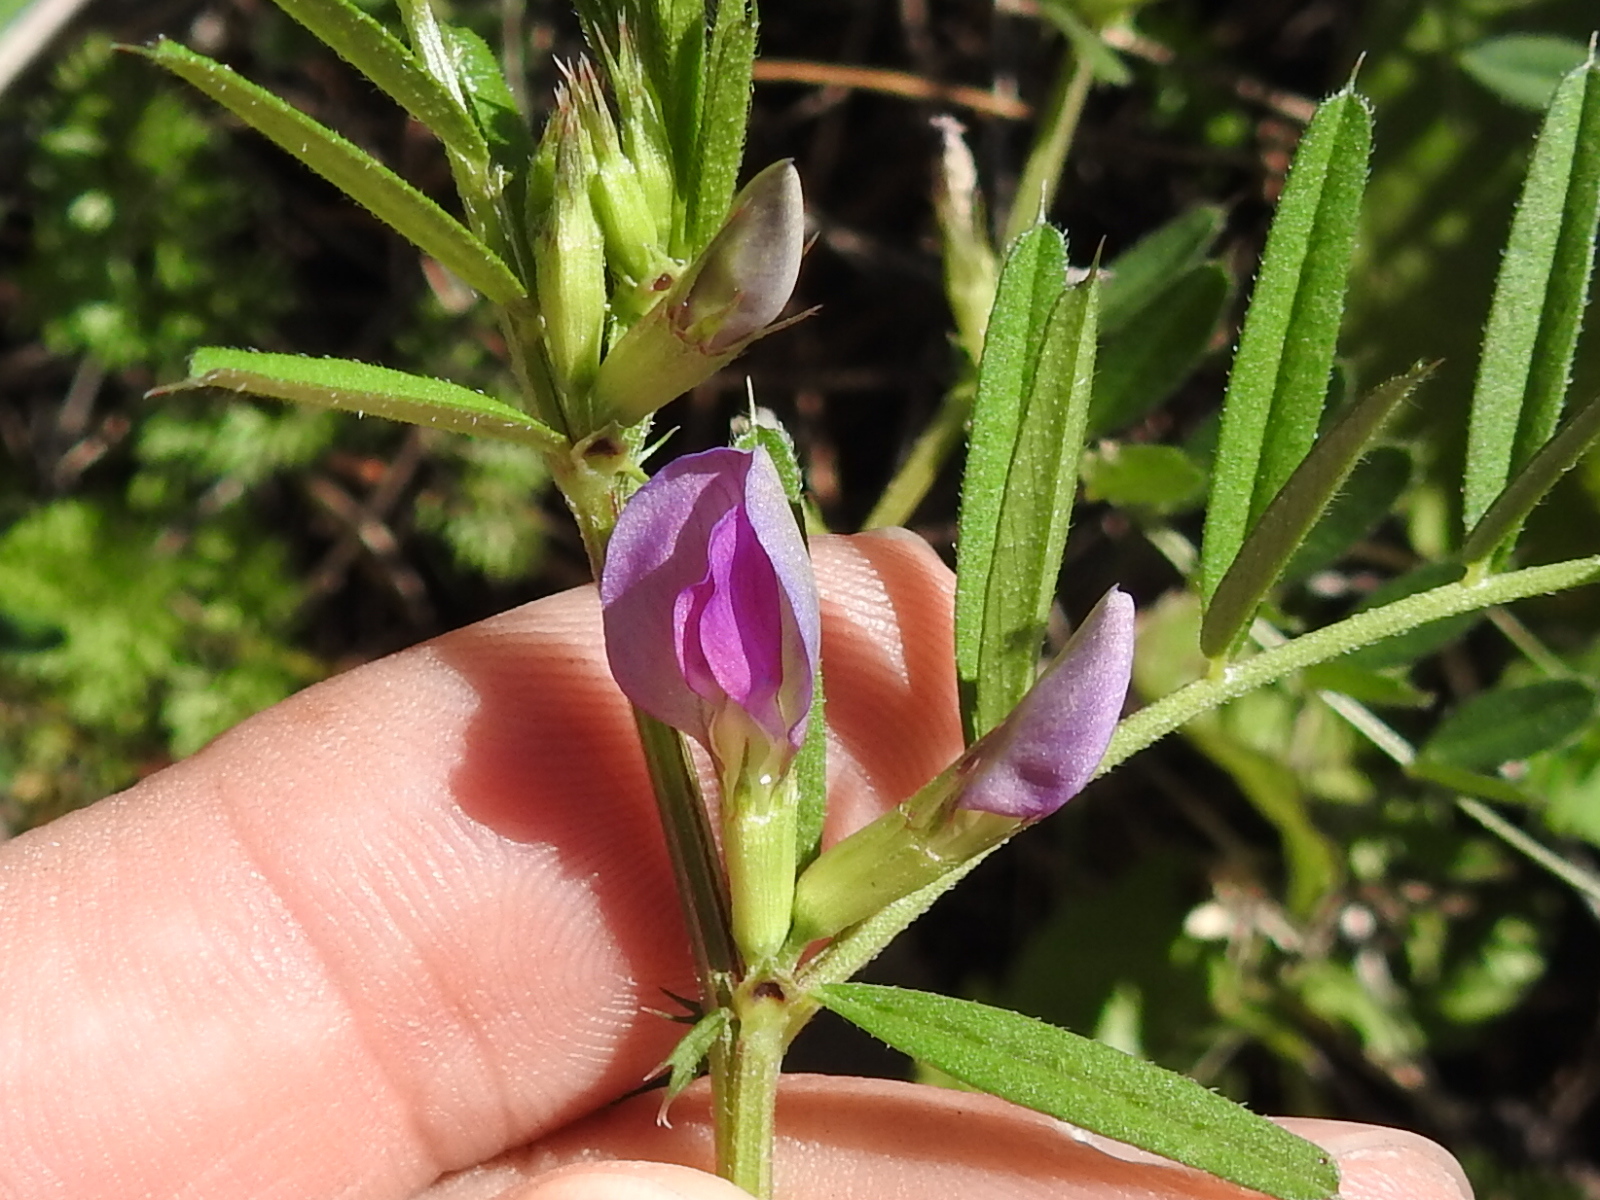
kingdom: Plantae
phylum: Tracheophyta
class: Magnoliopsida
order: Fabales
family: Fabaceae
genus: Vicia
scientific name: Vicia sativa
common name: Garden vetch
